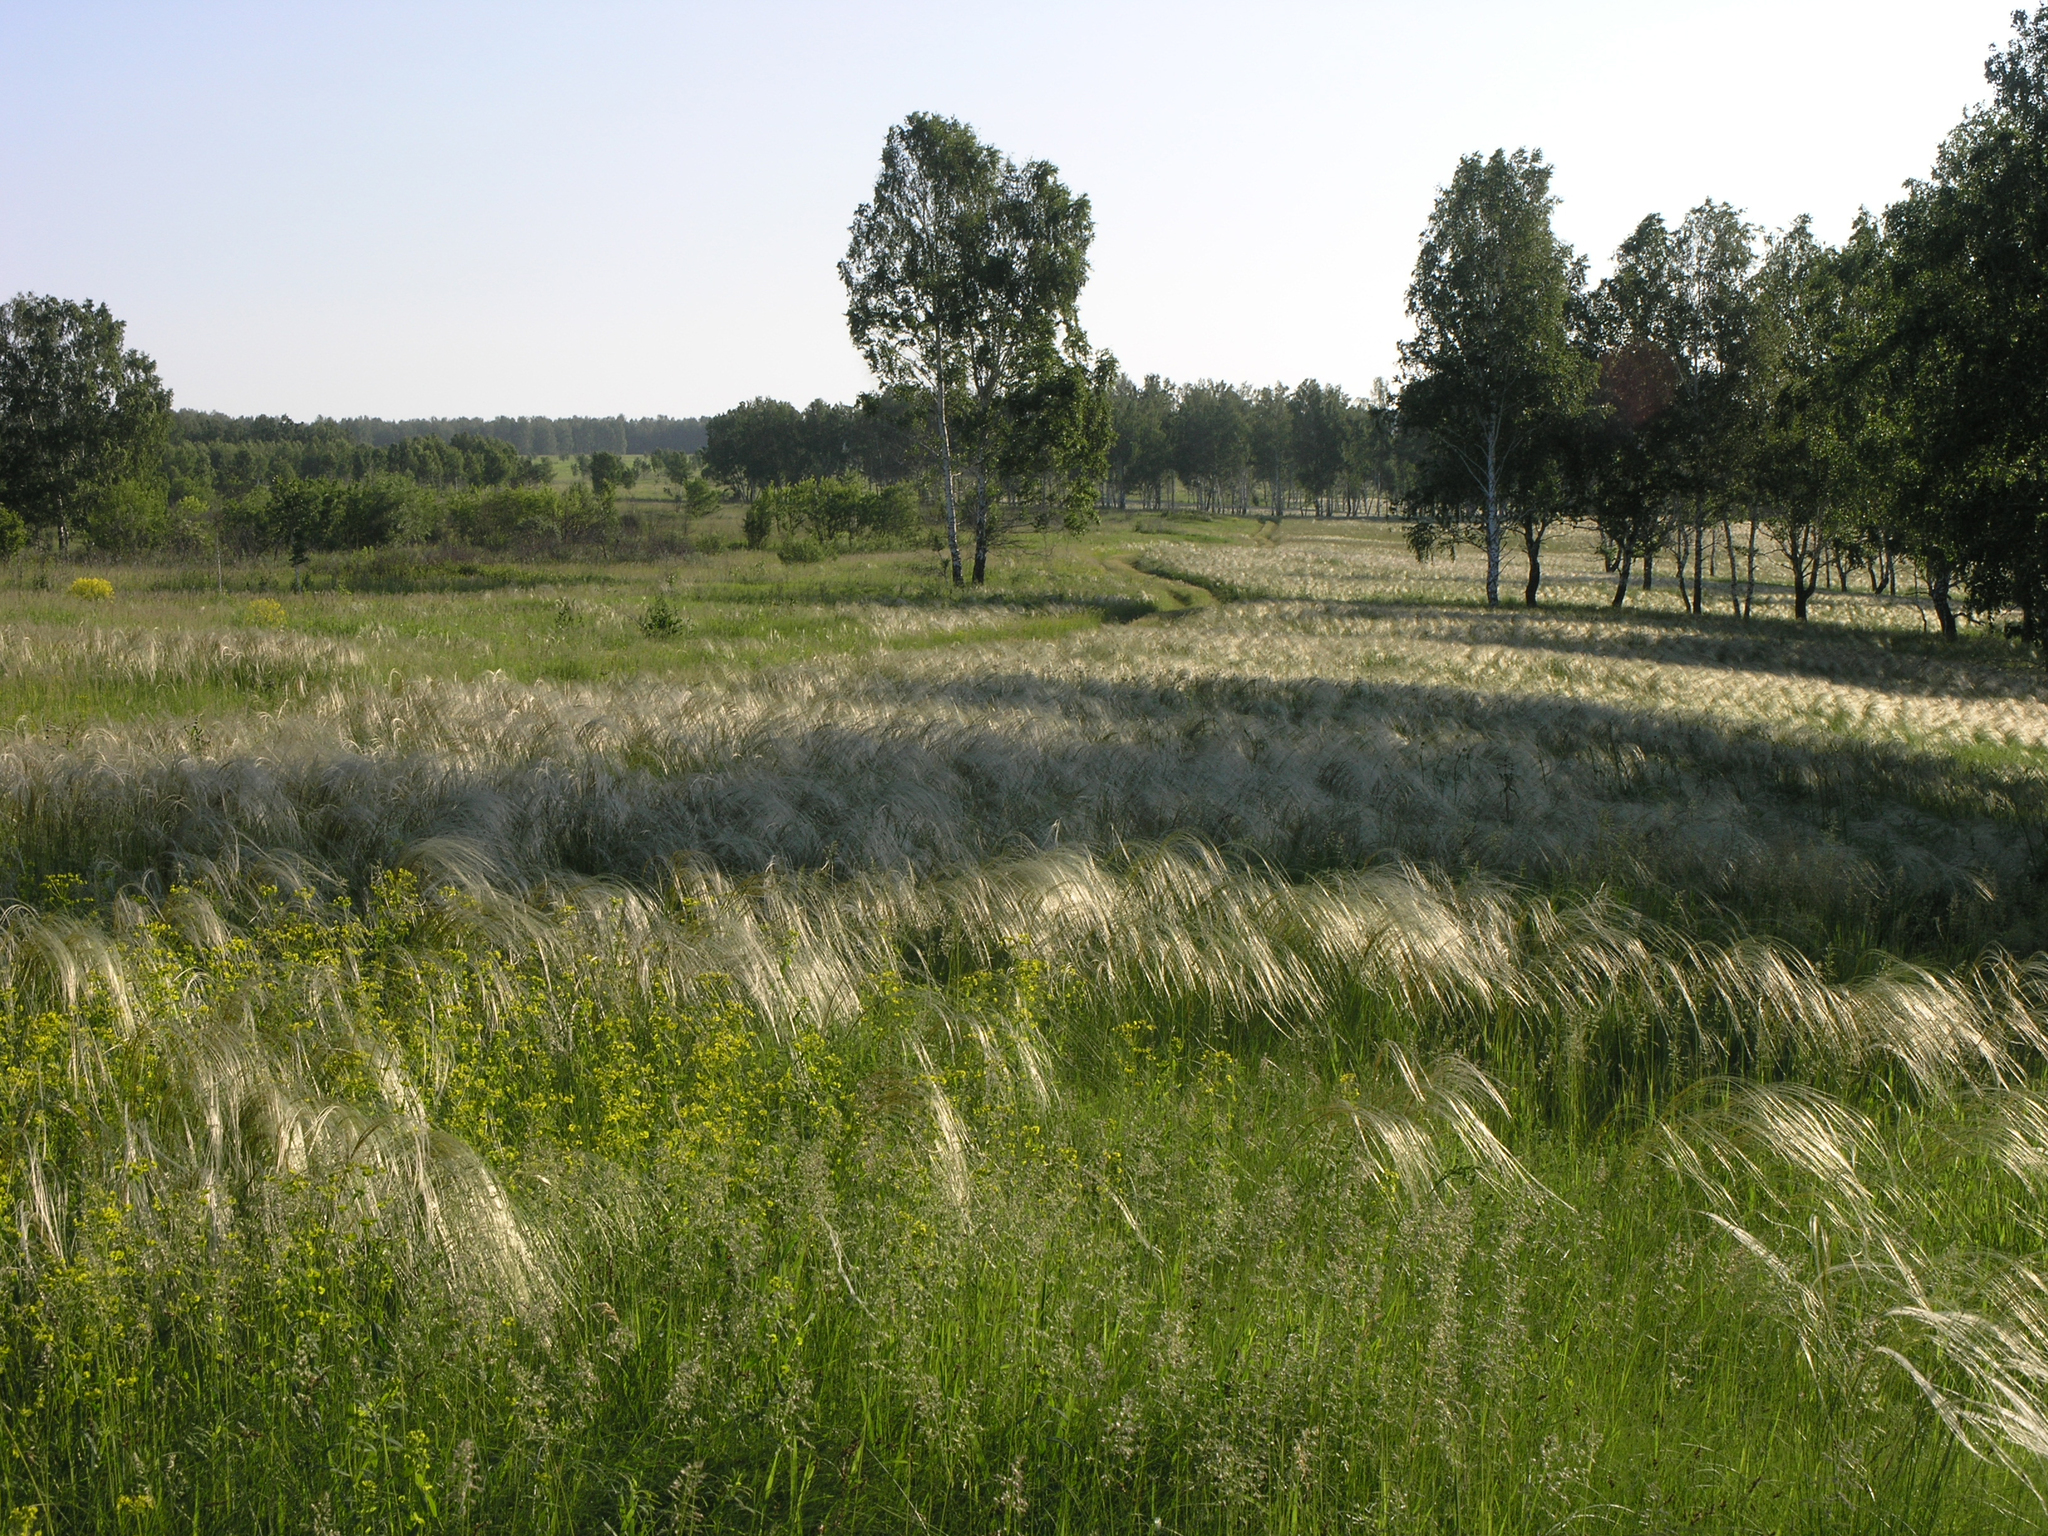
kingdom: Plantae
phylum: Tracheophyta
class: Liliopsida
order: Poales
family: Poaceae
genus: Stipa
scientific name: Stipa pennata
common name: European feather grass
